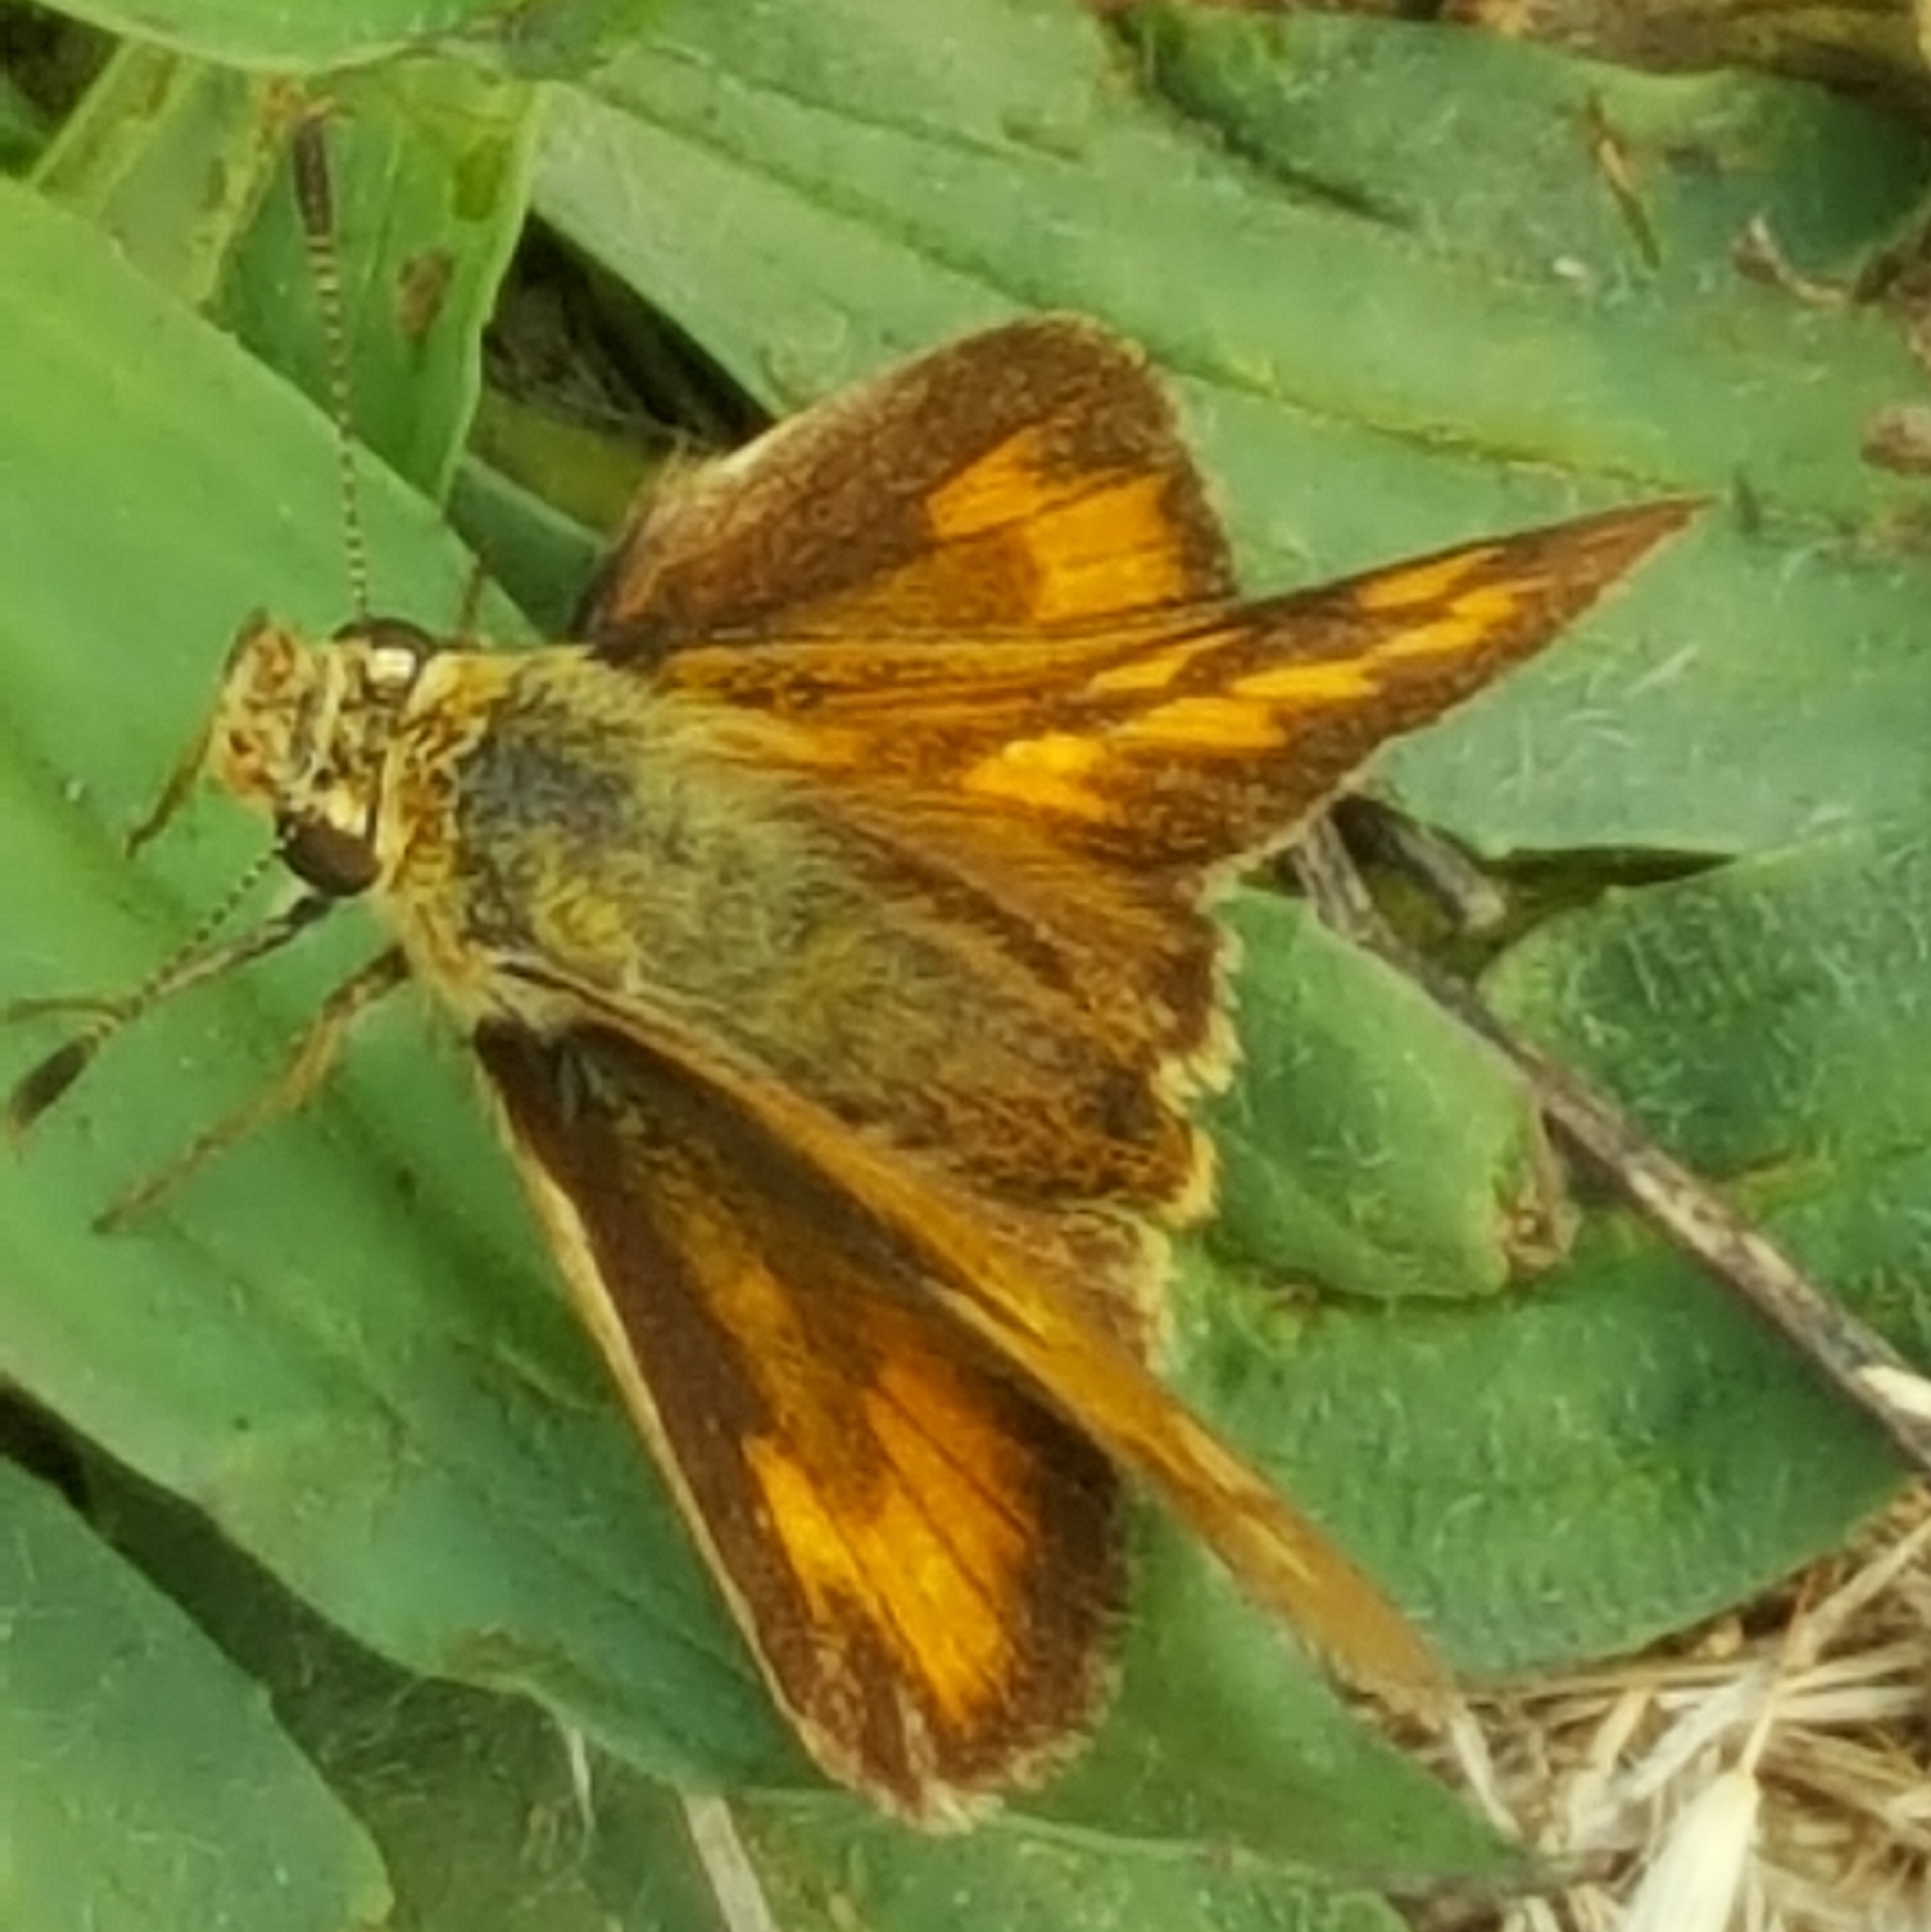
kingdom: Animalia
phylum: Arthropoda
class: Insecta
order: Lepidoptera
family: Hesperiidae
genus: Ochlodes
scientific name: Ochlodes sylvanoides
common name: Woodland skipper
